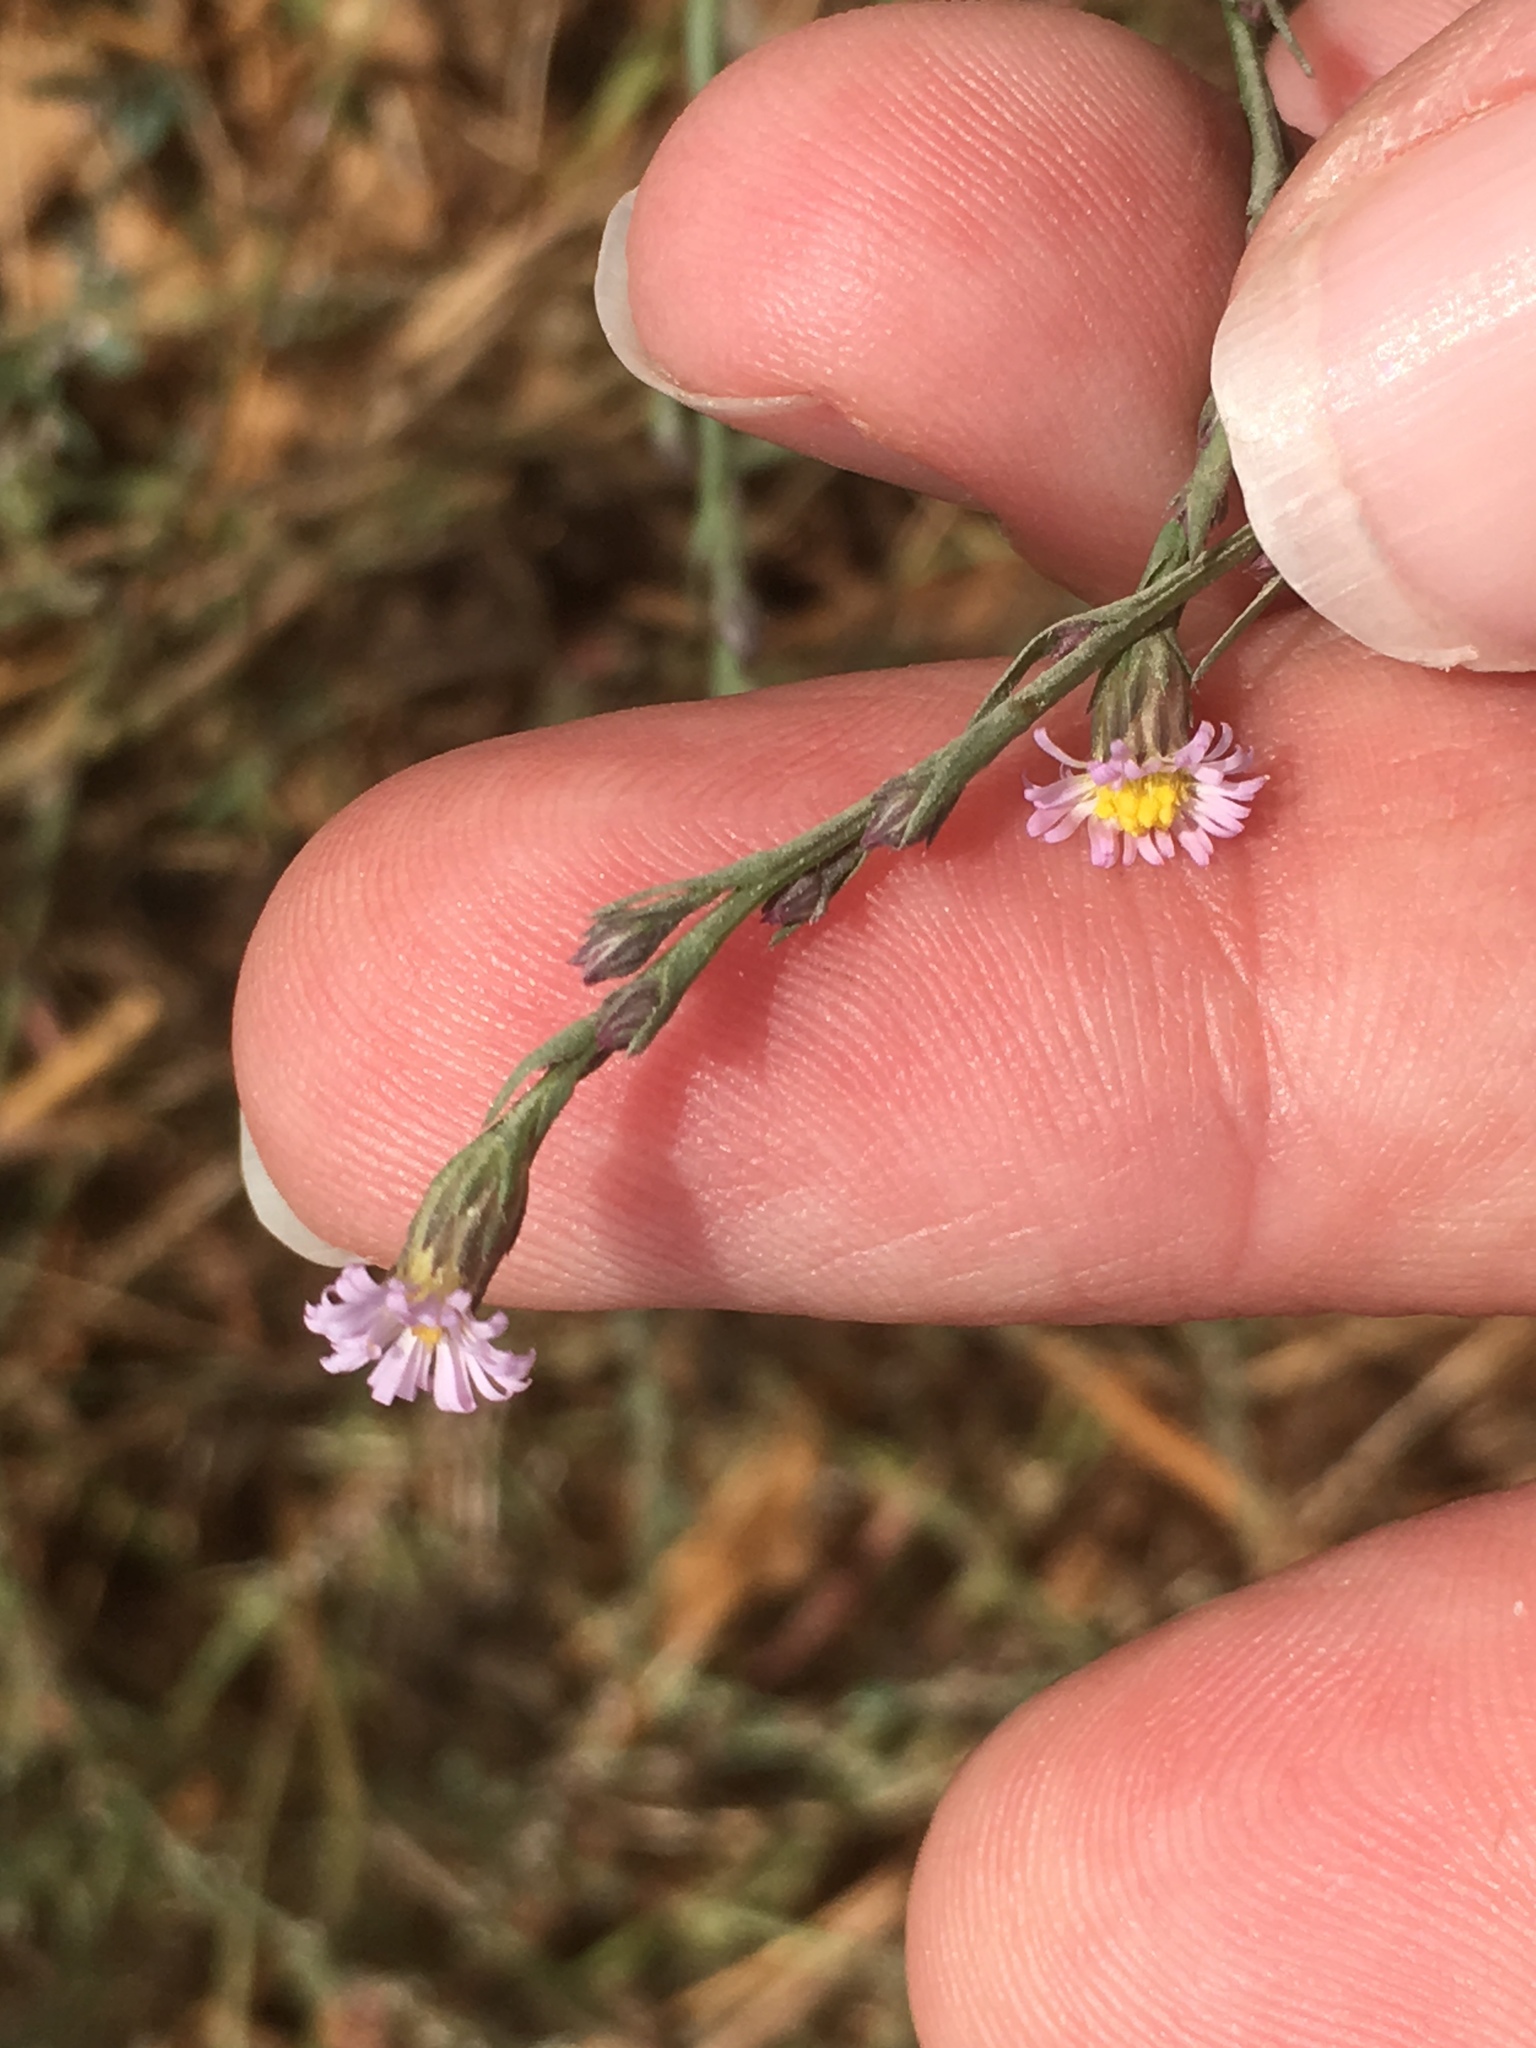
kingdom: Plantae
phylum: Tracheophyta
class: Magnoliopsida
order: Asterales
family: Asteraceae
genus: Symphyotrichum
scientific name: Symphyotrichum subulatum
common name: Annual saltmarsh aster
